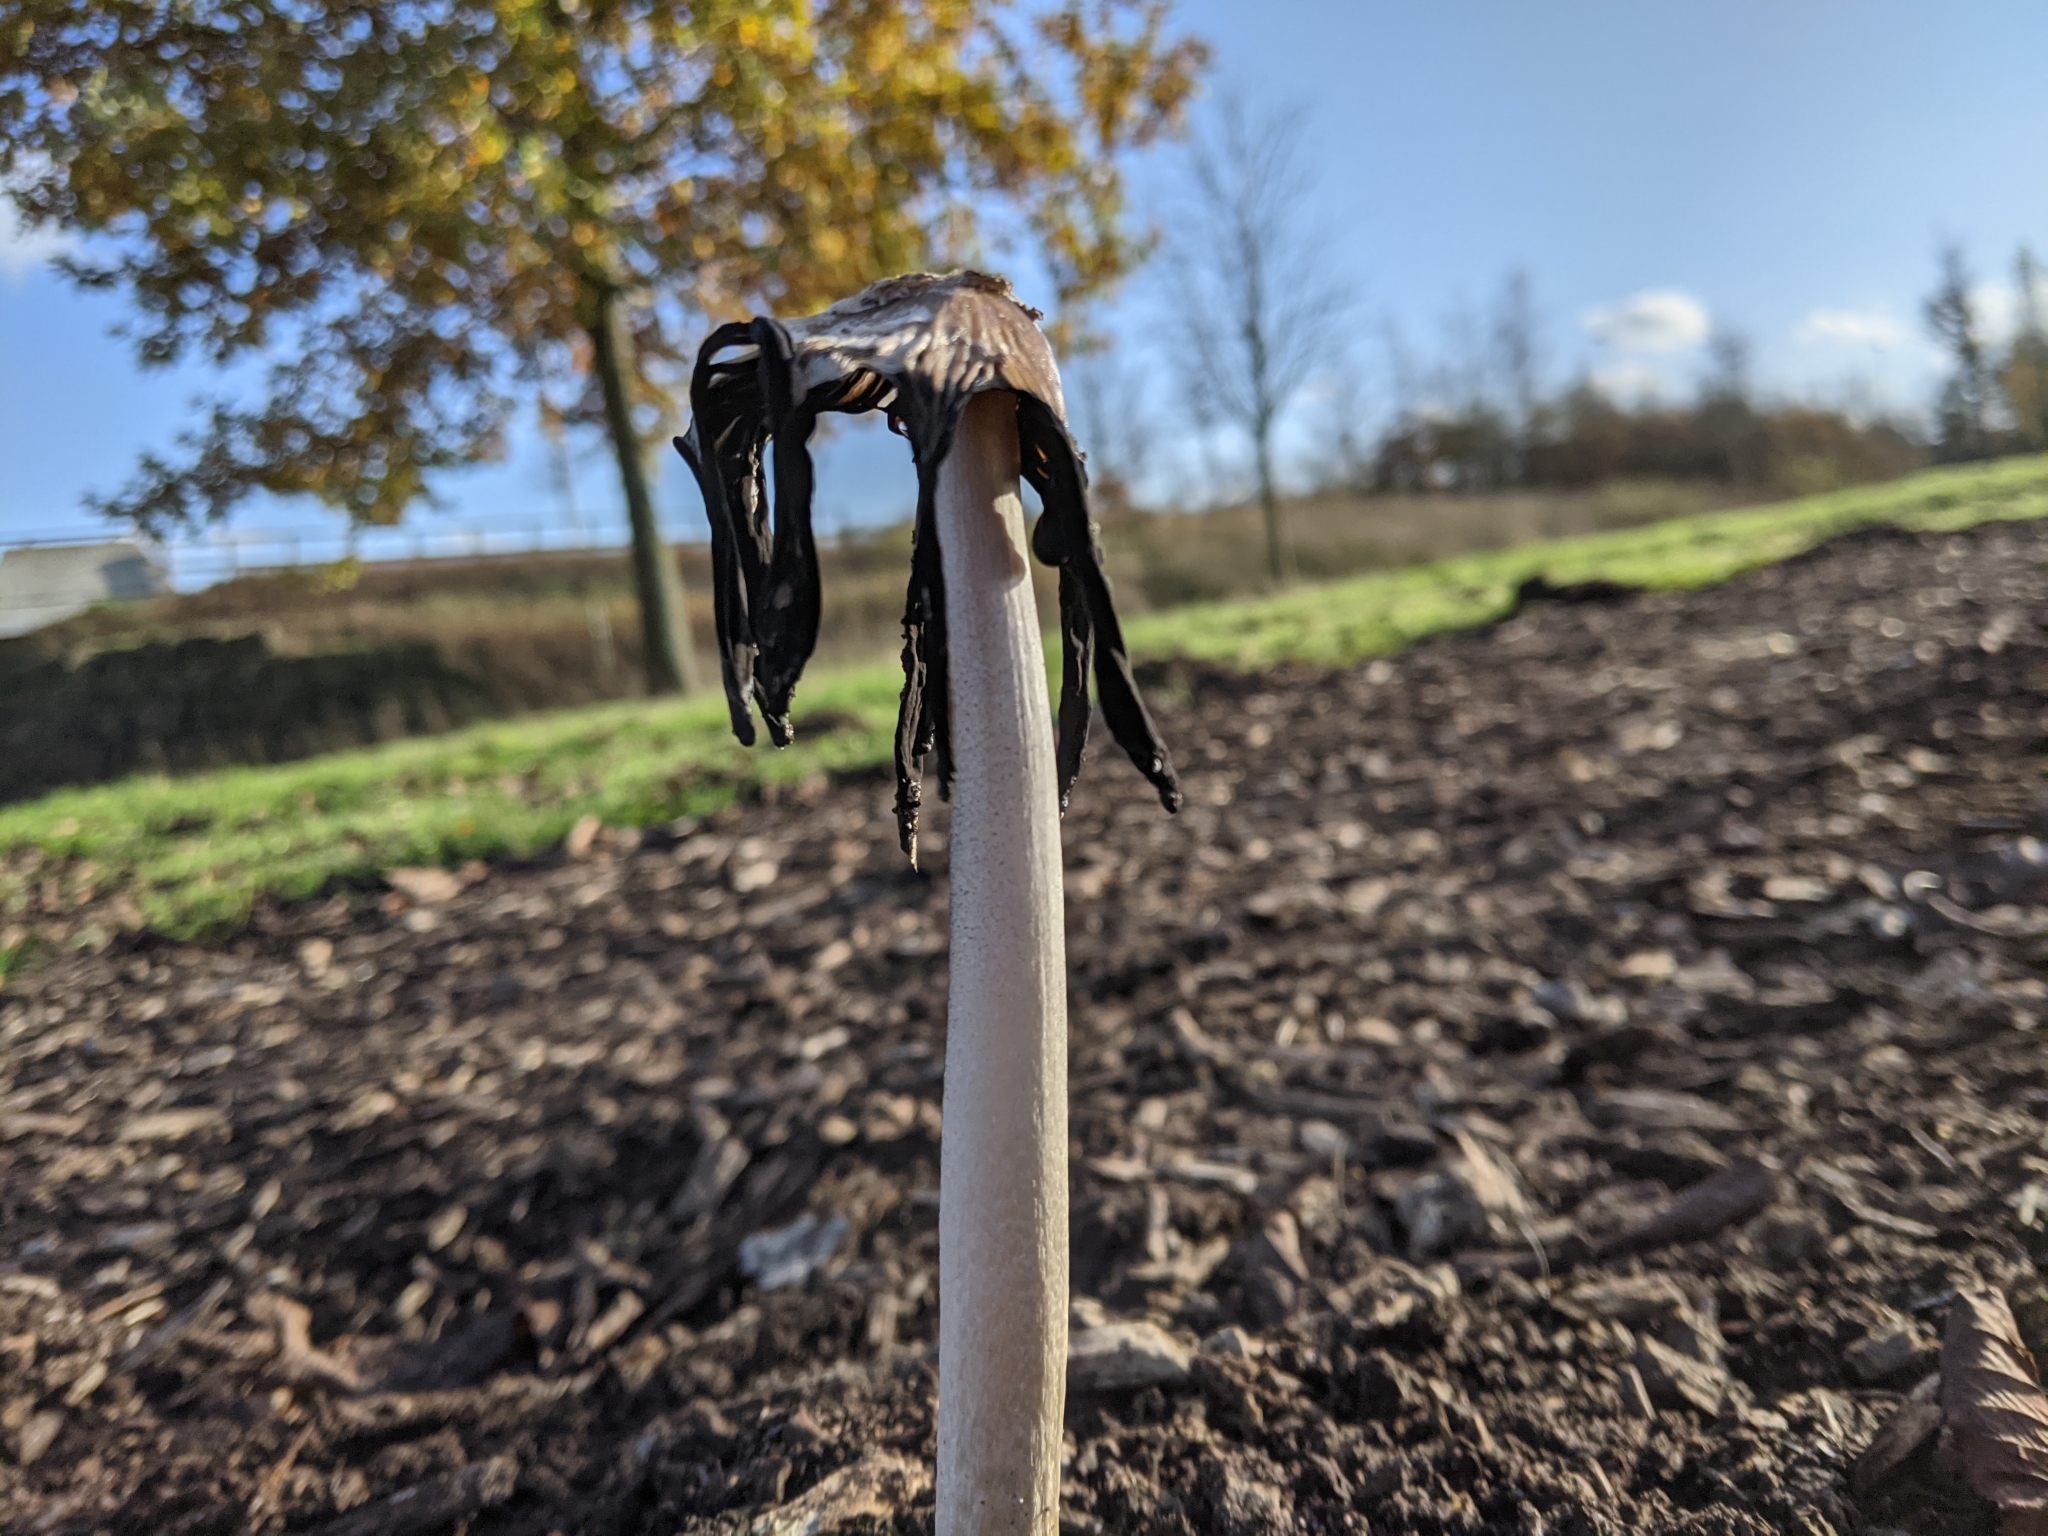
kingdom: Fungi
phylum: Basidiomycota
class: Agaricomycetes
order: Agaricales
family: Agaricaceae
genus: Coprinus
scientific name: Coprinus comatus
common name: Lawyer's wig
